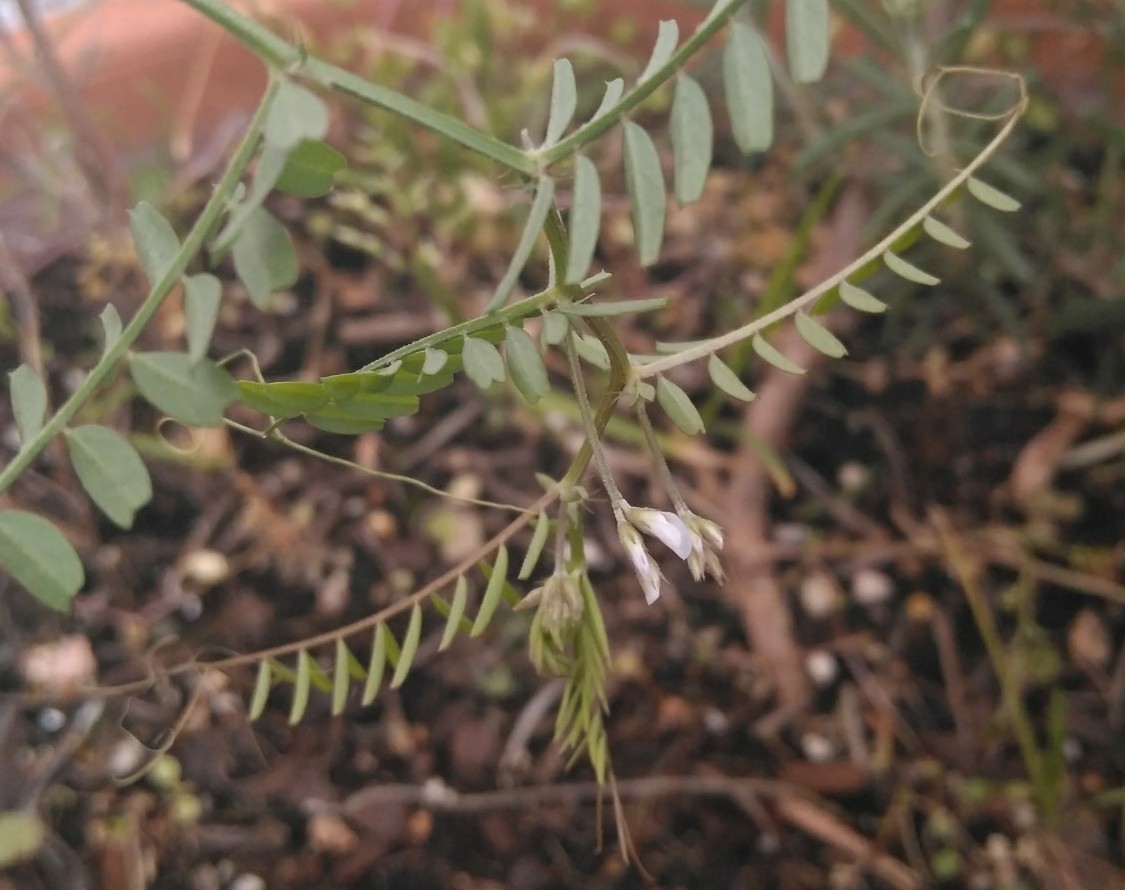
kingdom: Plantae
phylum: Tracheophyta
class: Magnoliopsida
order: Fabales
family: Fabaceae
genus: Vicia
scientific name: Vicia hirsuta
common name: Tiny vetch
